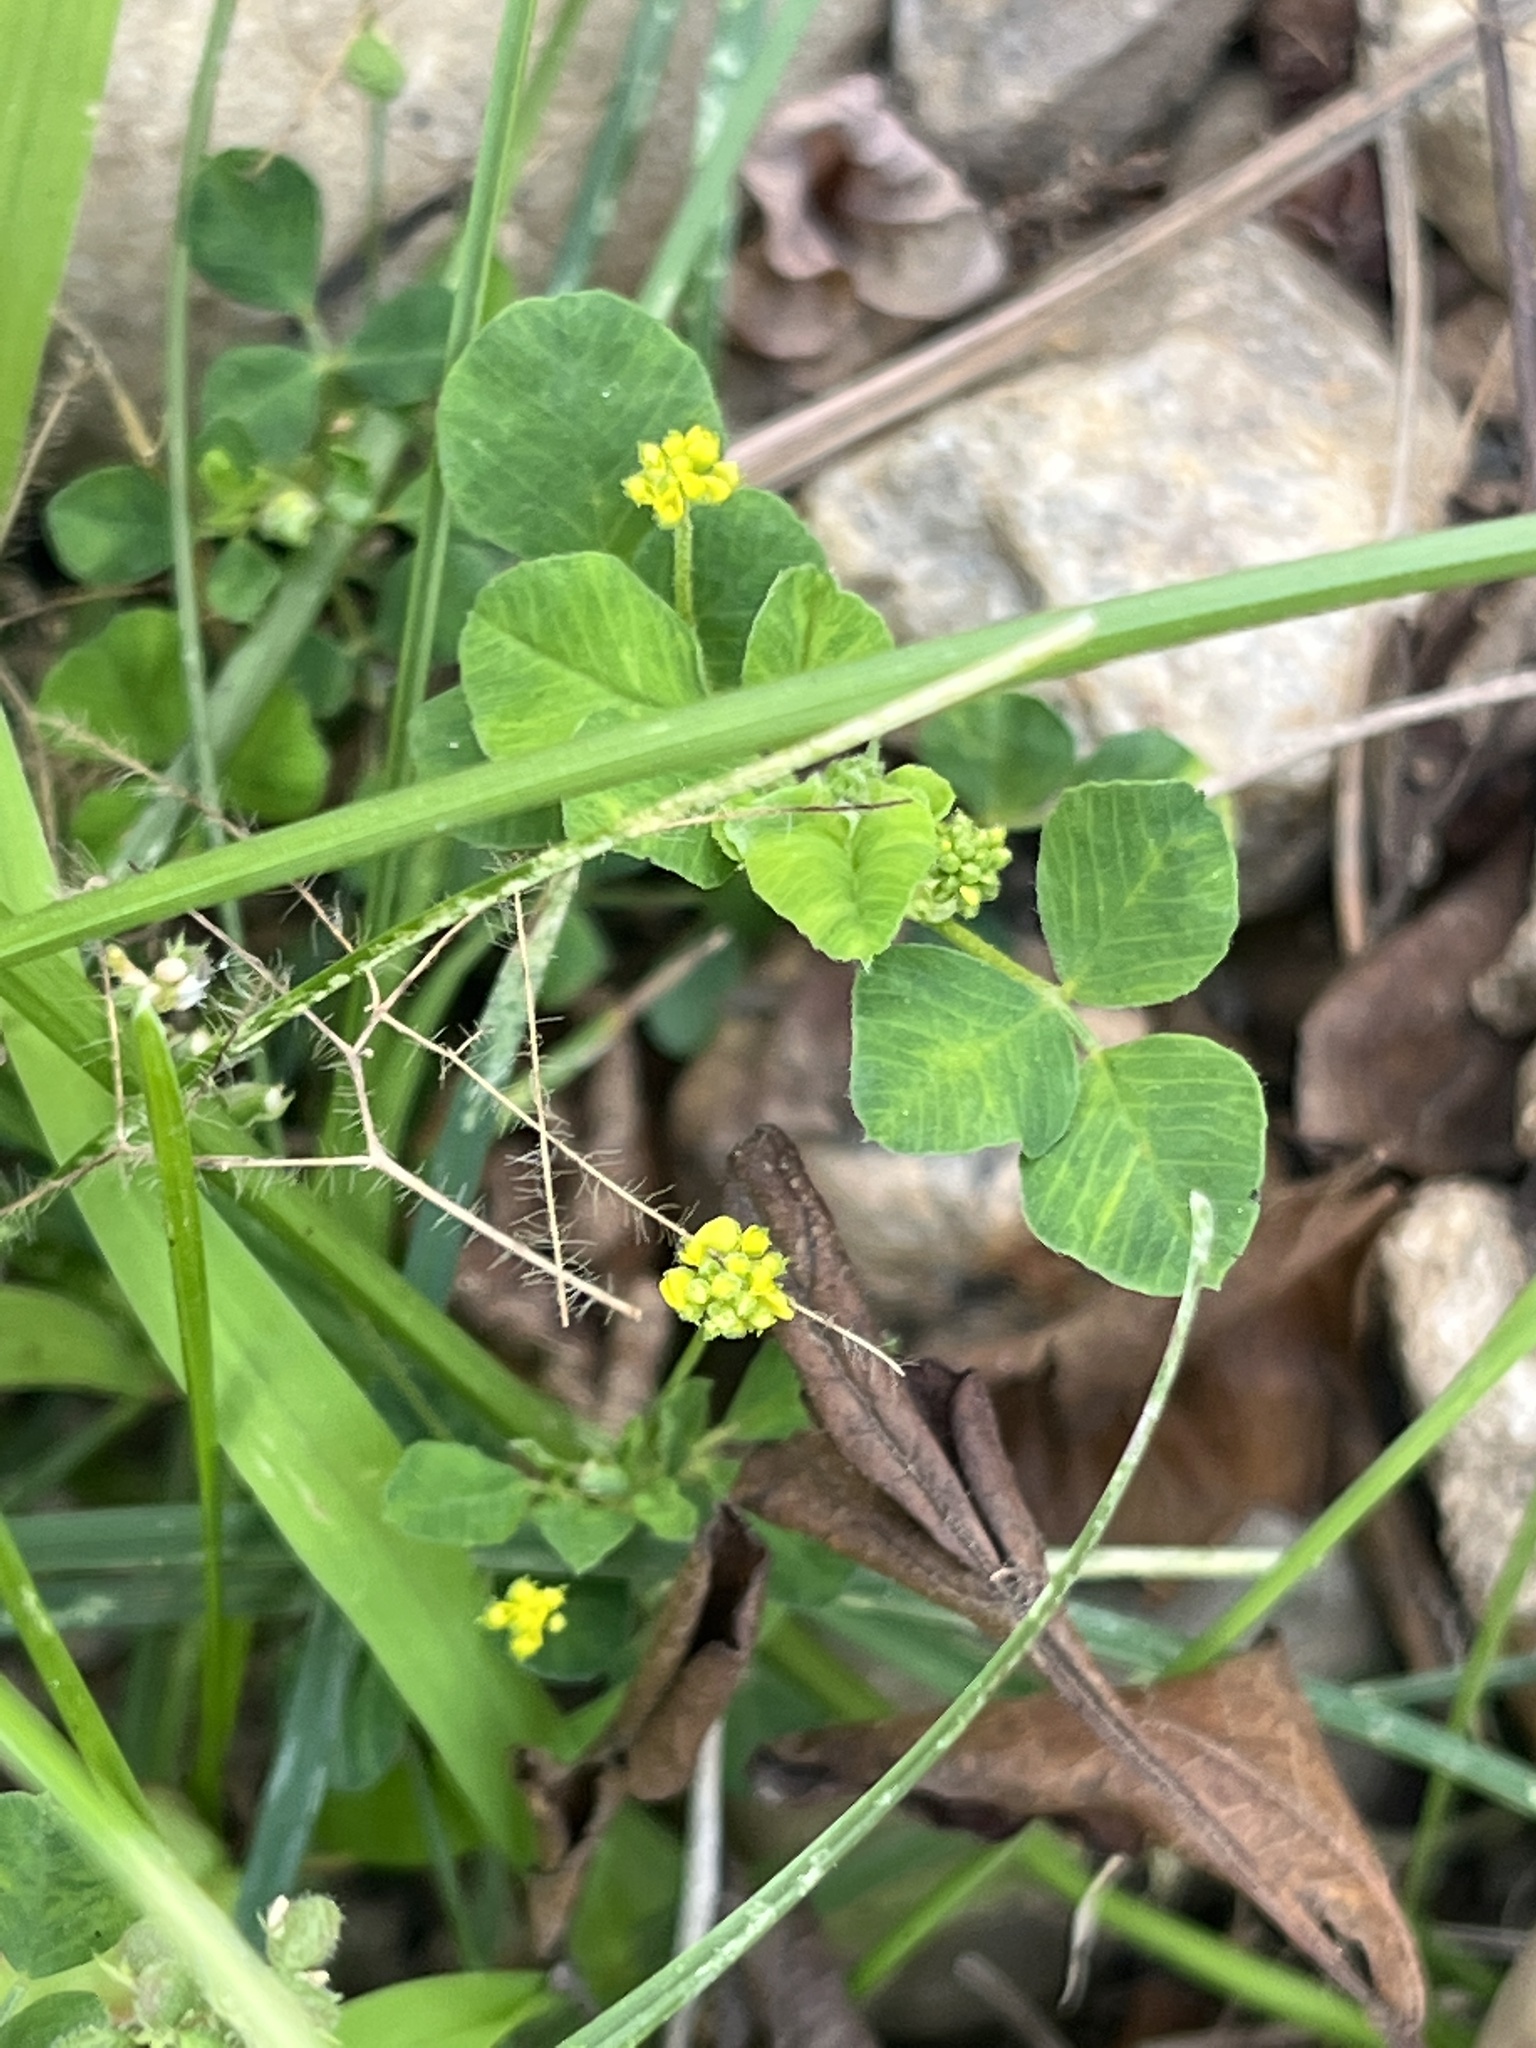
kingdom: Plantae
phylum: Tracheophyta
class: Magnoliopsida
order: Fabales
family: Fabaceae
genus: Medicago
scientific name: Medicago lupulina
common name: Black medick
